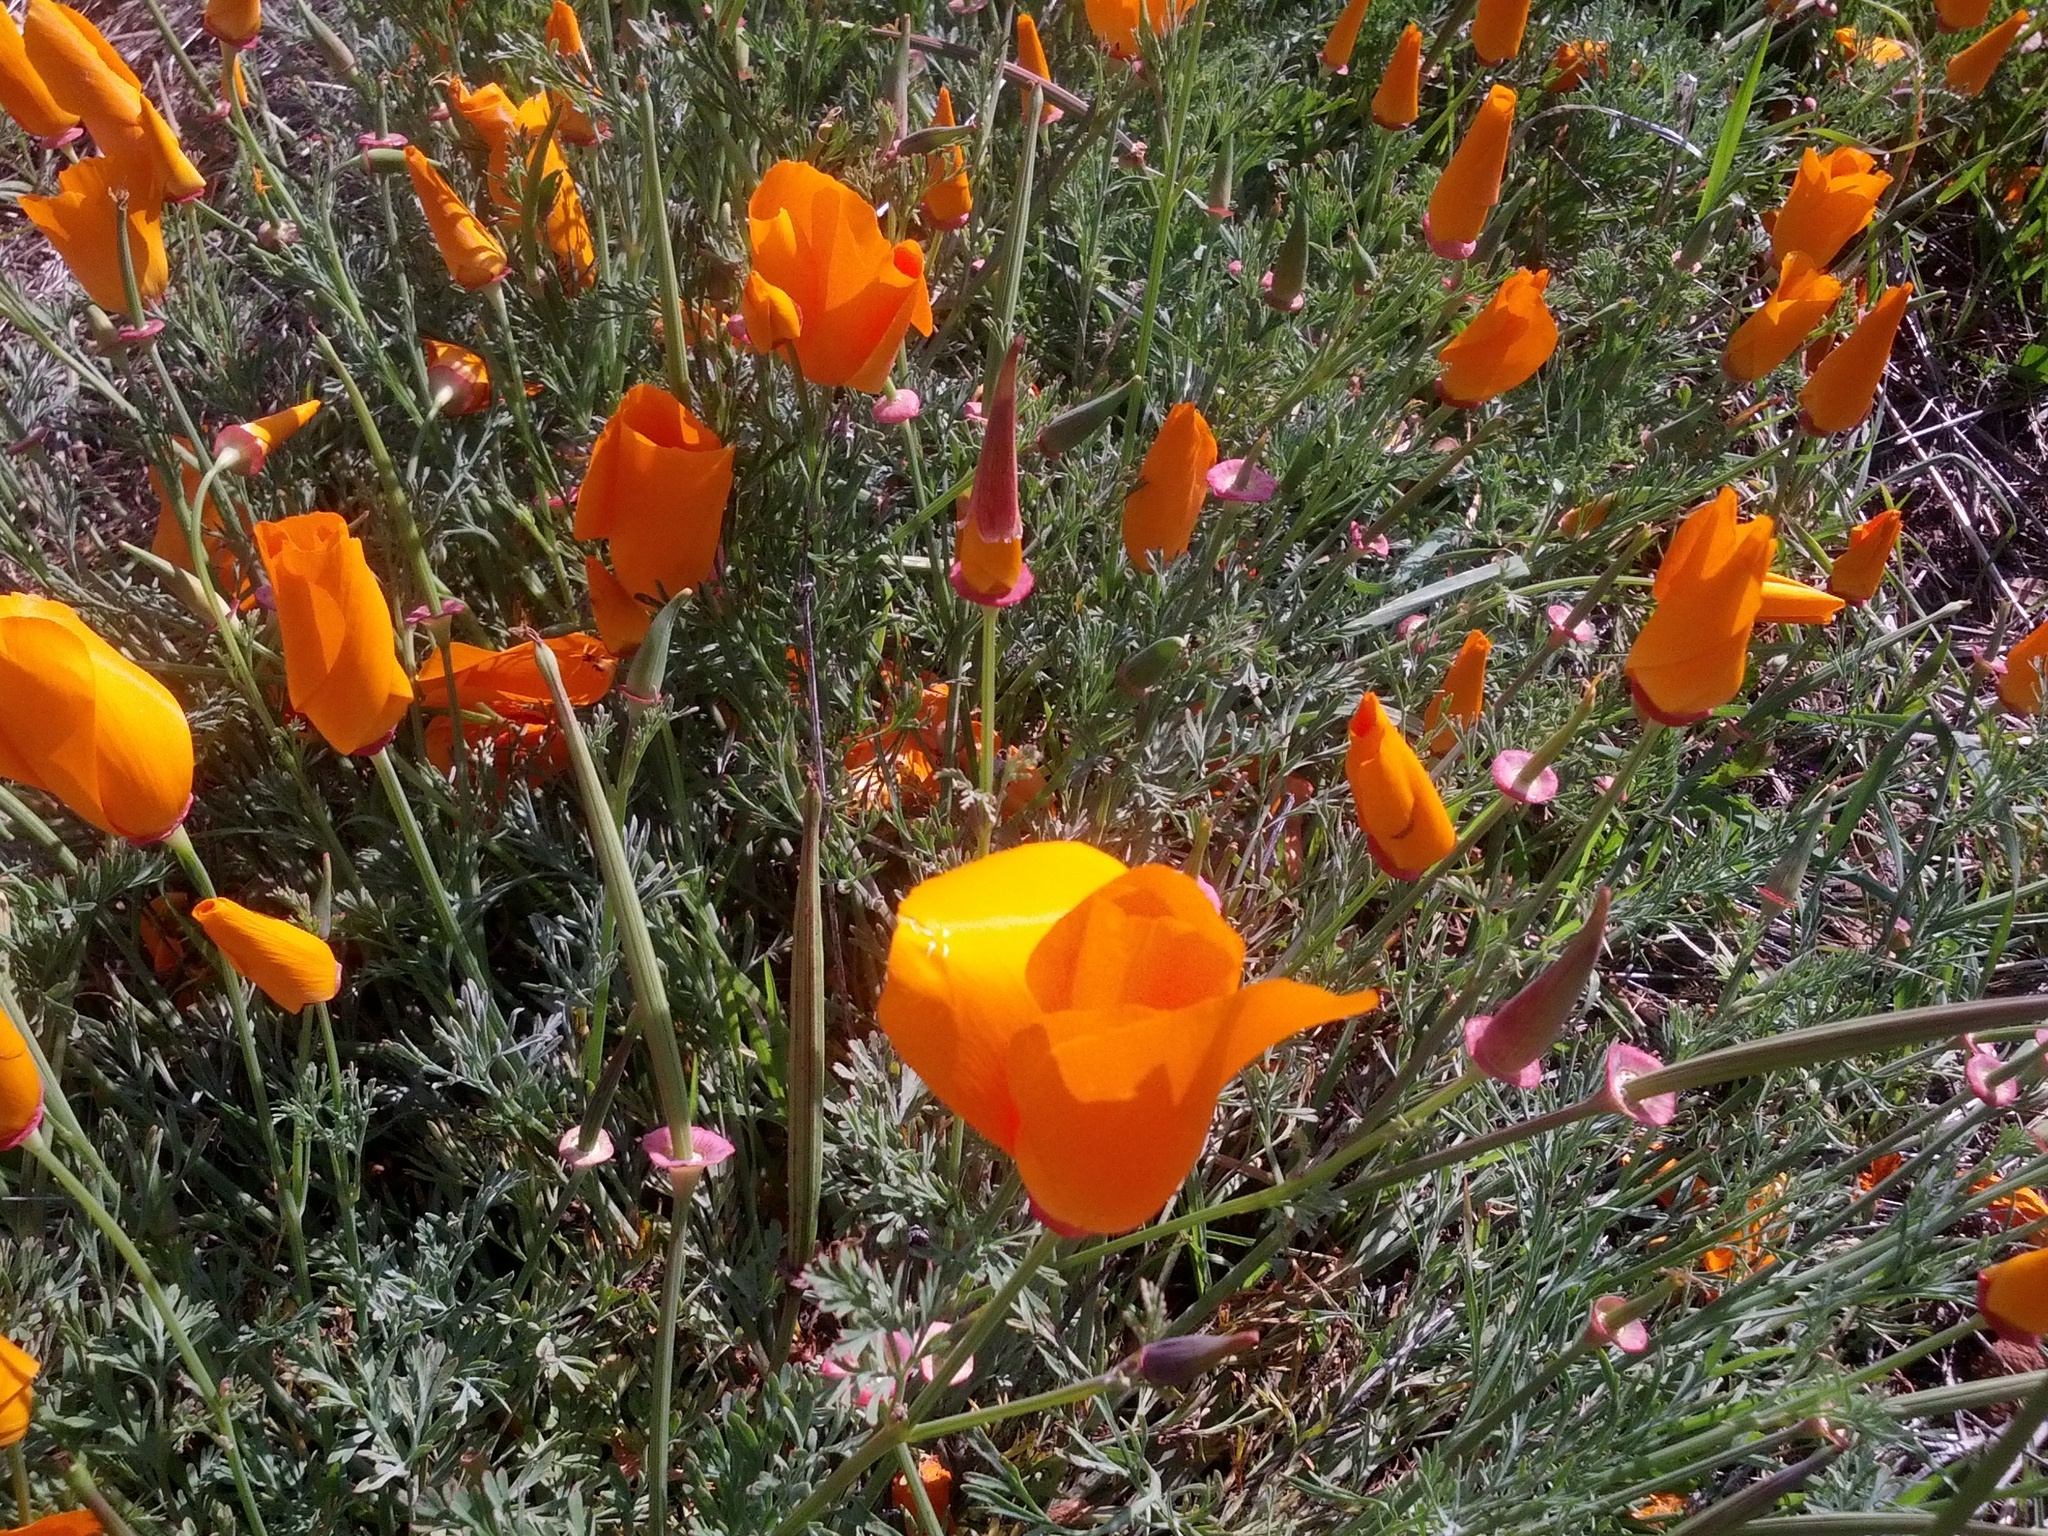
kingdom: Plantae
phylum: Tracheophyta
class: Magnoliopsida
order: Ranunculales
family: Papaveraceae
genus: Eschscholzia
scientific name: Eschscholzia californica
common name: California poppy
